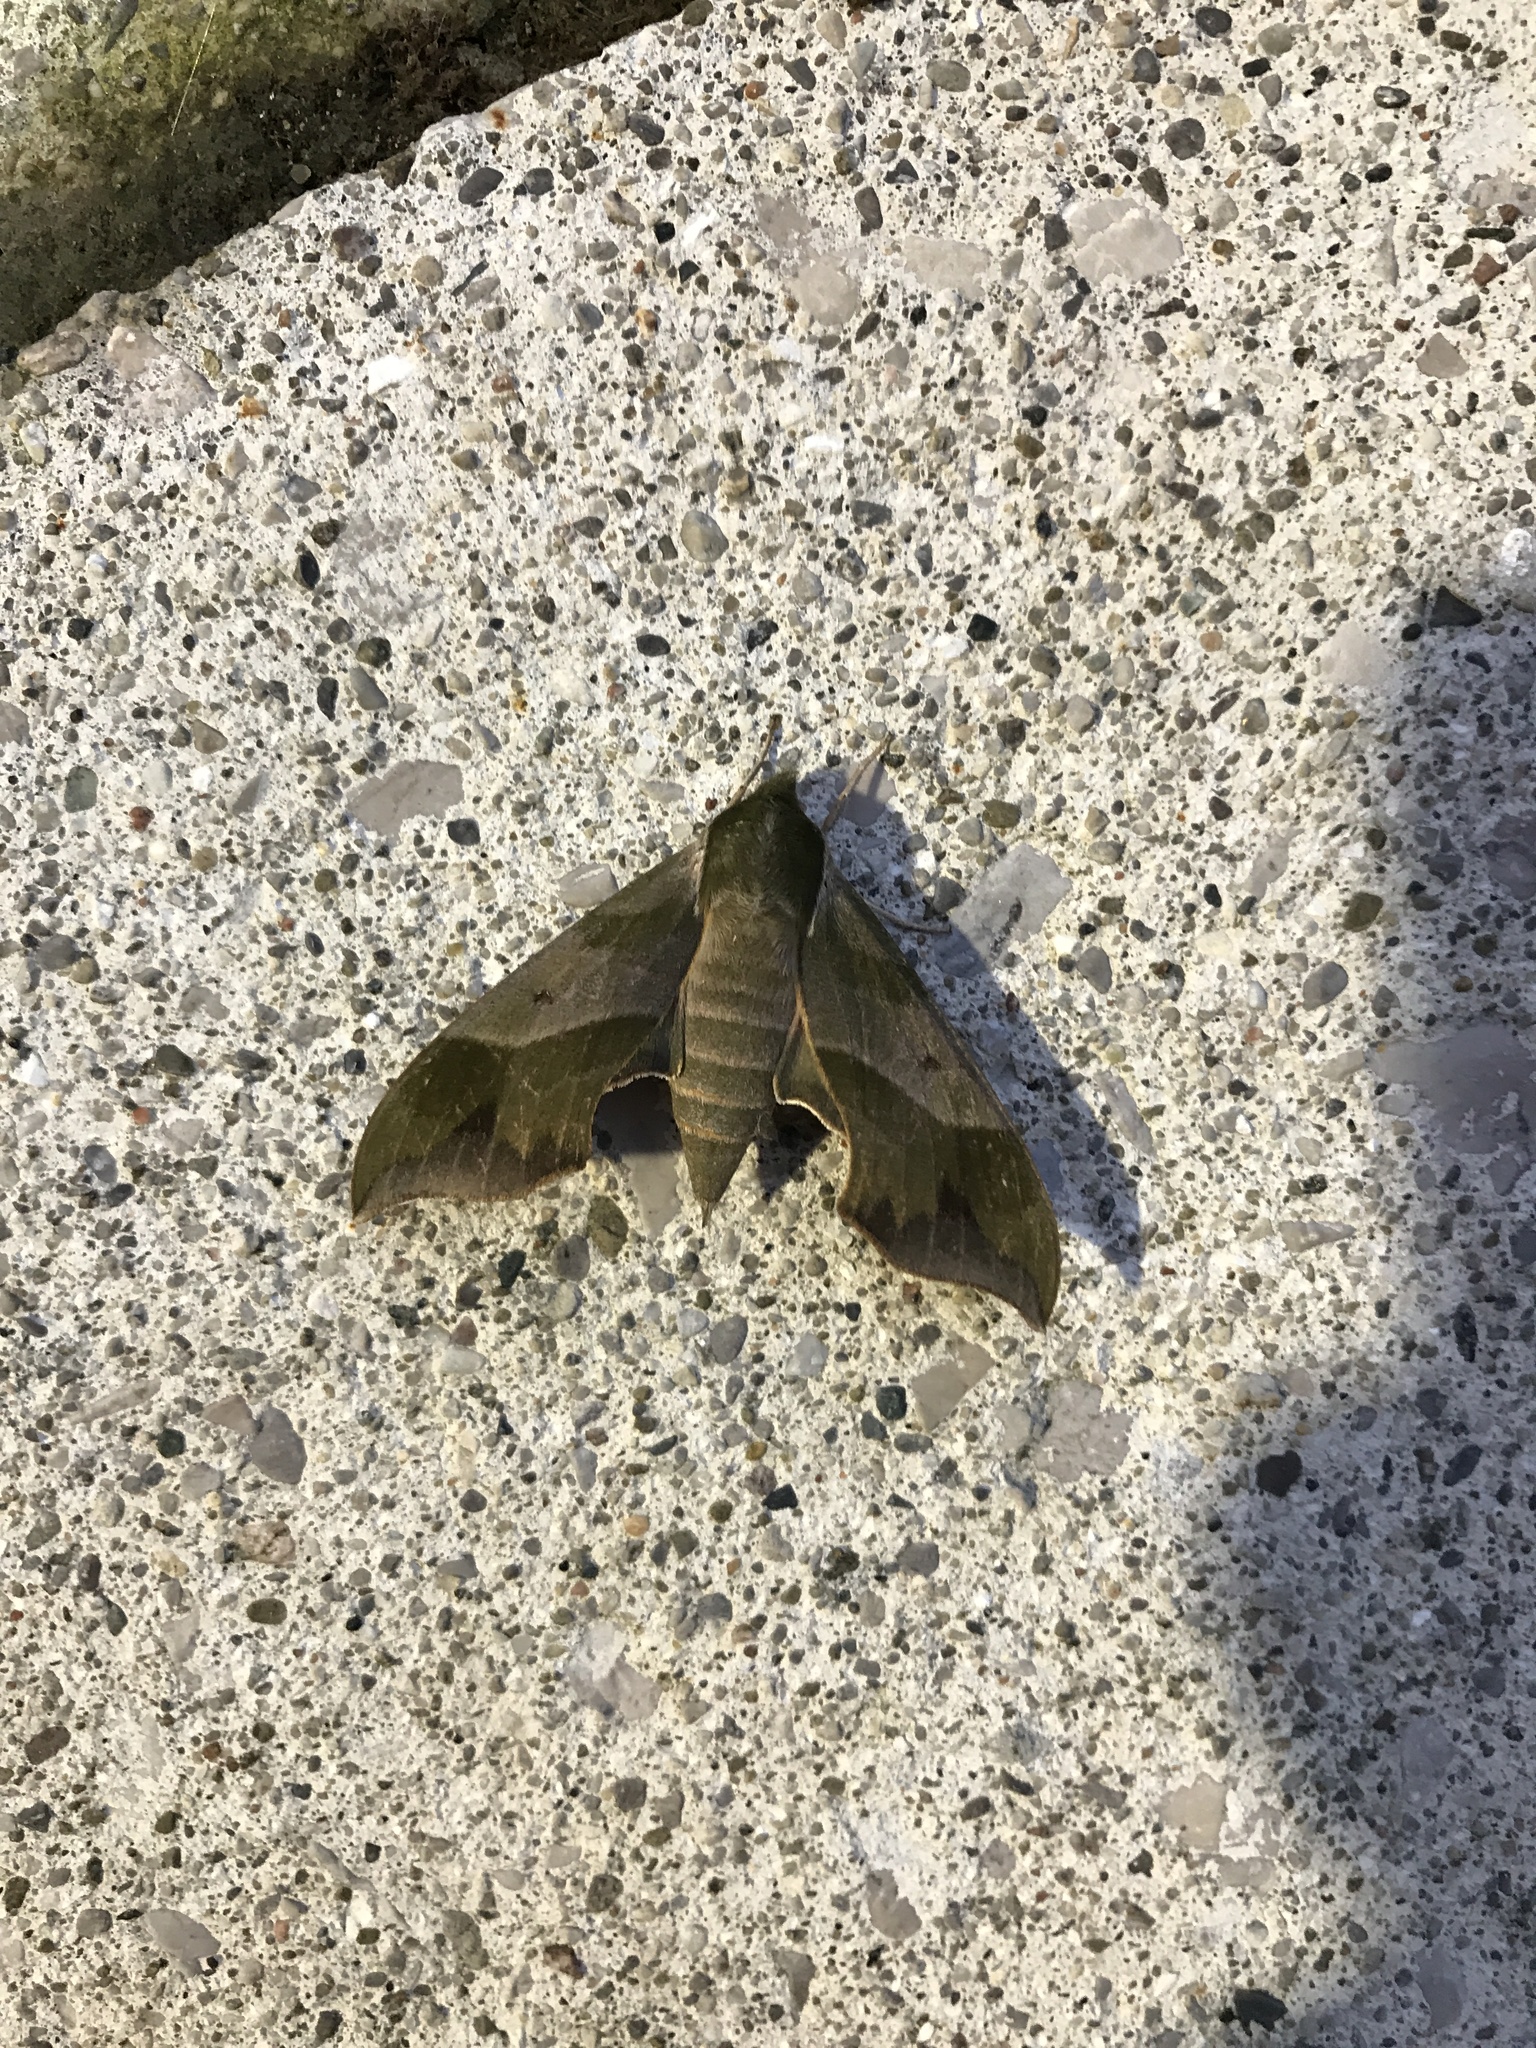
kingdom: Animalia
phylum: Arthropoda
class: Insecta
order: Lepidoptera
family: Sphingidae
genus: Darapsa
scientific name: Darapsa myron
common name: Hog sphinx
